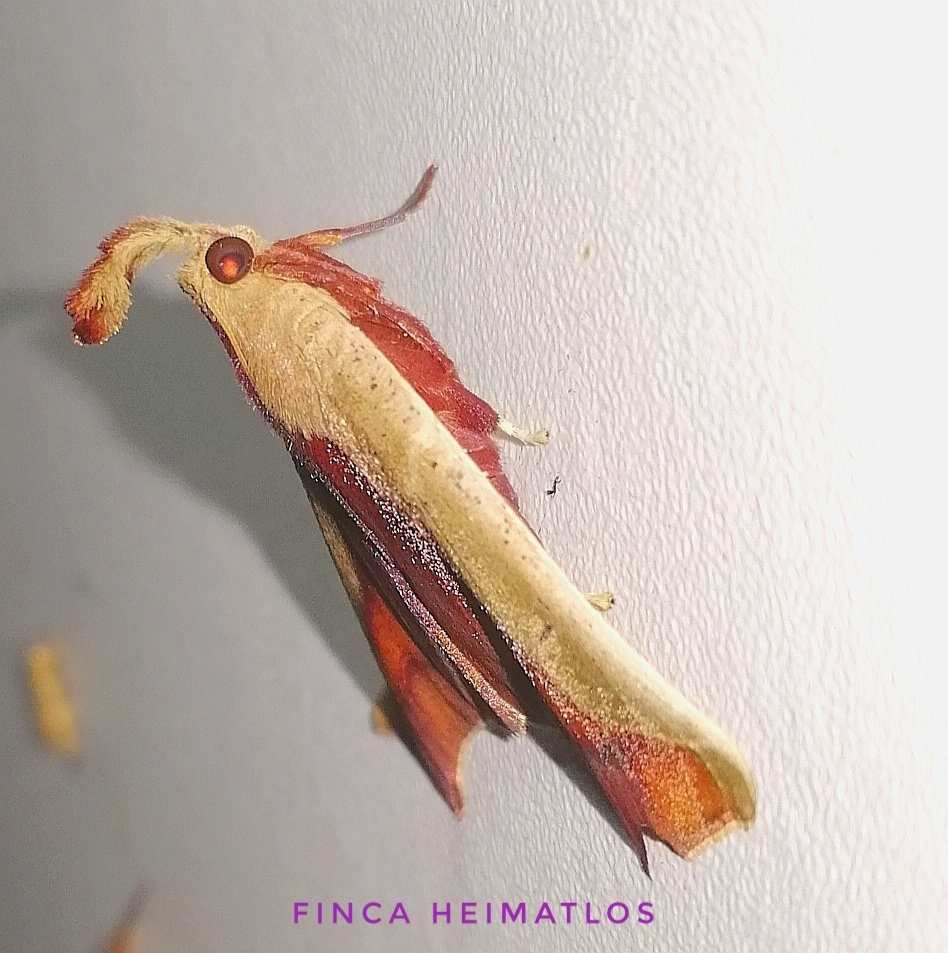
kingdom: Animalia
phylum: Arthropoda
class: Insecta
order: Lepidoptera
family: Pyralidae
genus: Arbinia
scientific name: Arbinia todilla
